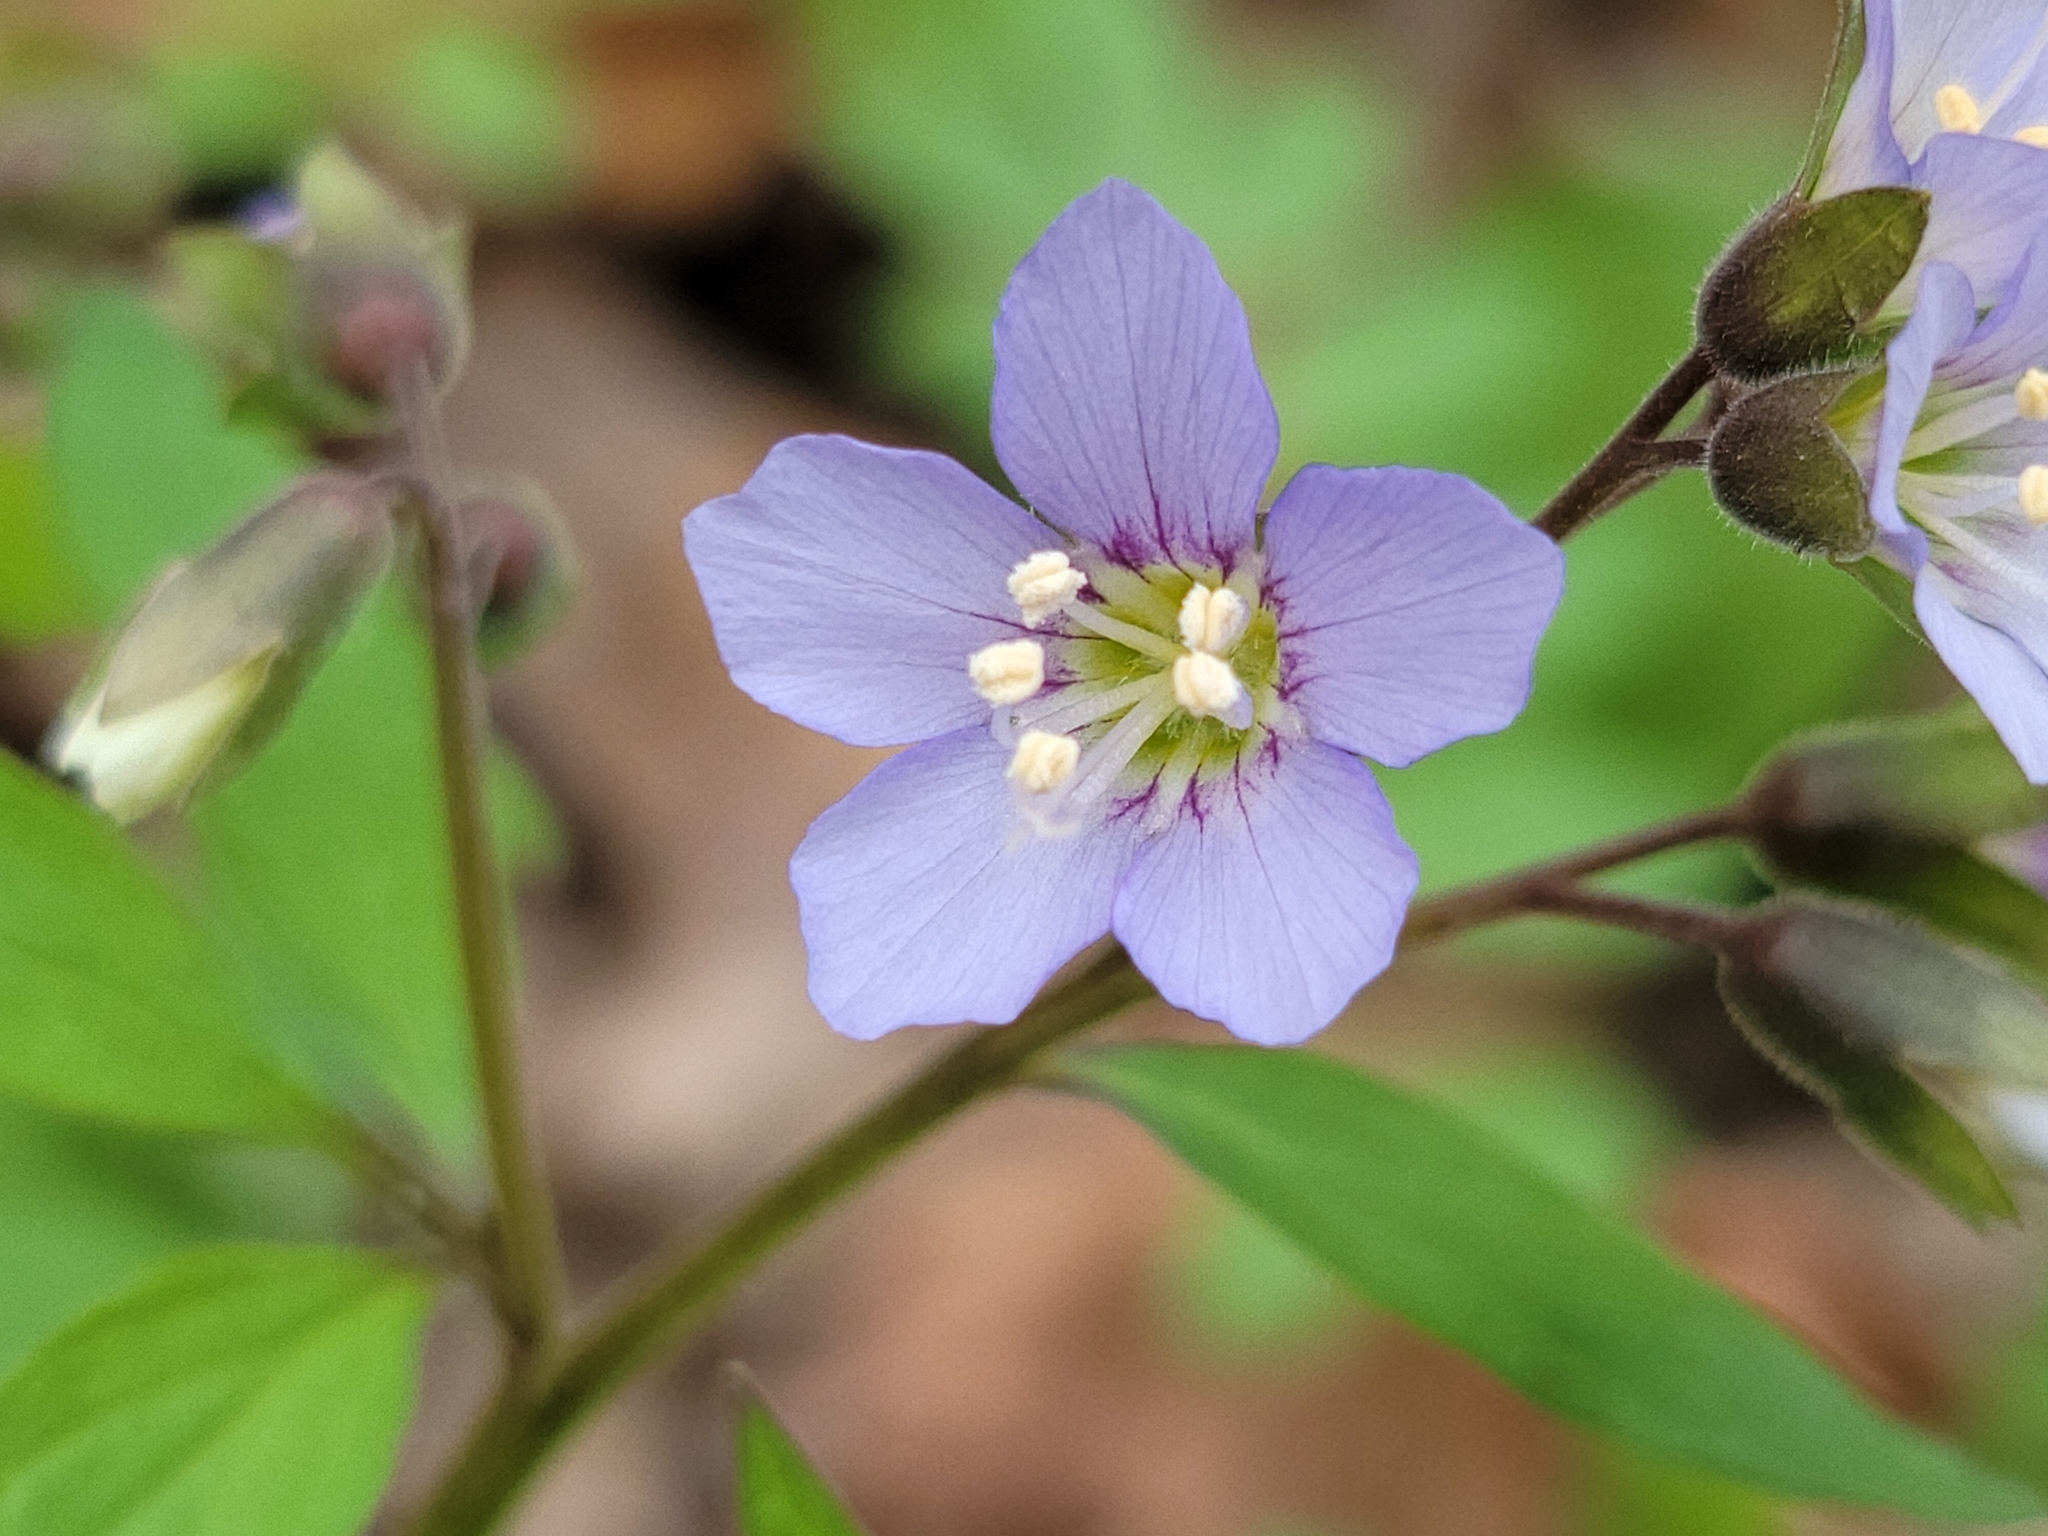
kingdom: Plantae
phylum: Tracheophyta
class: Magnoliopsida
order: Ericales
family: Polemoniaceae
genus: Polemonium
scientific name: Polemonium reptans
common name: Creeping jacob's-ladder
